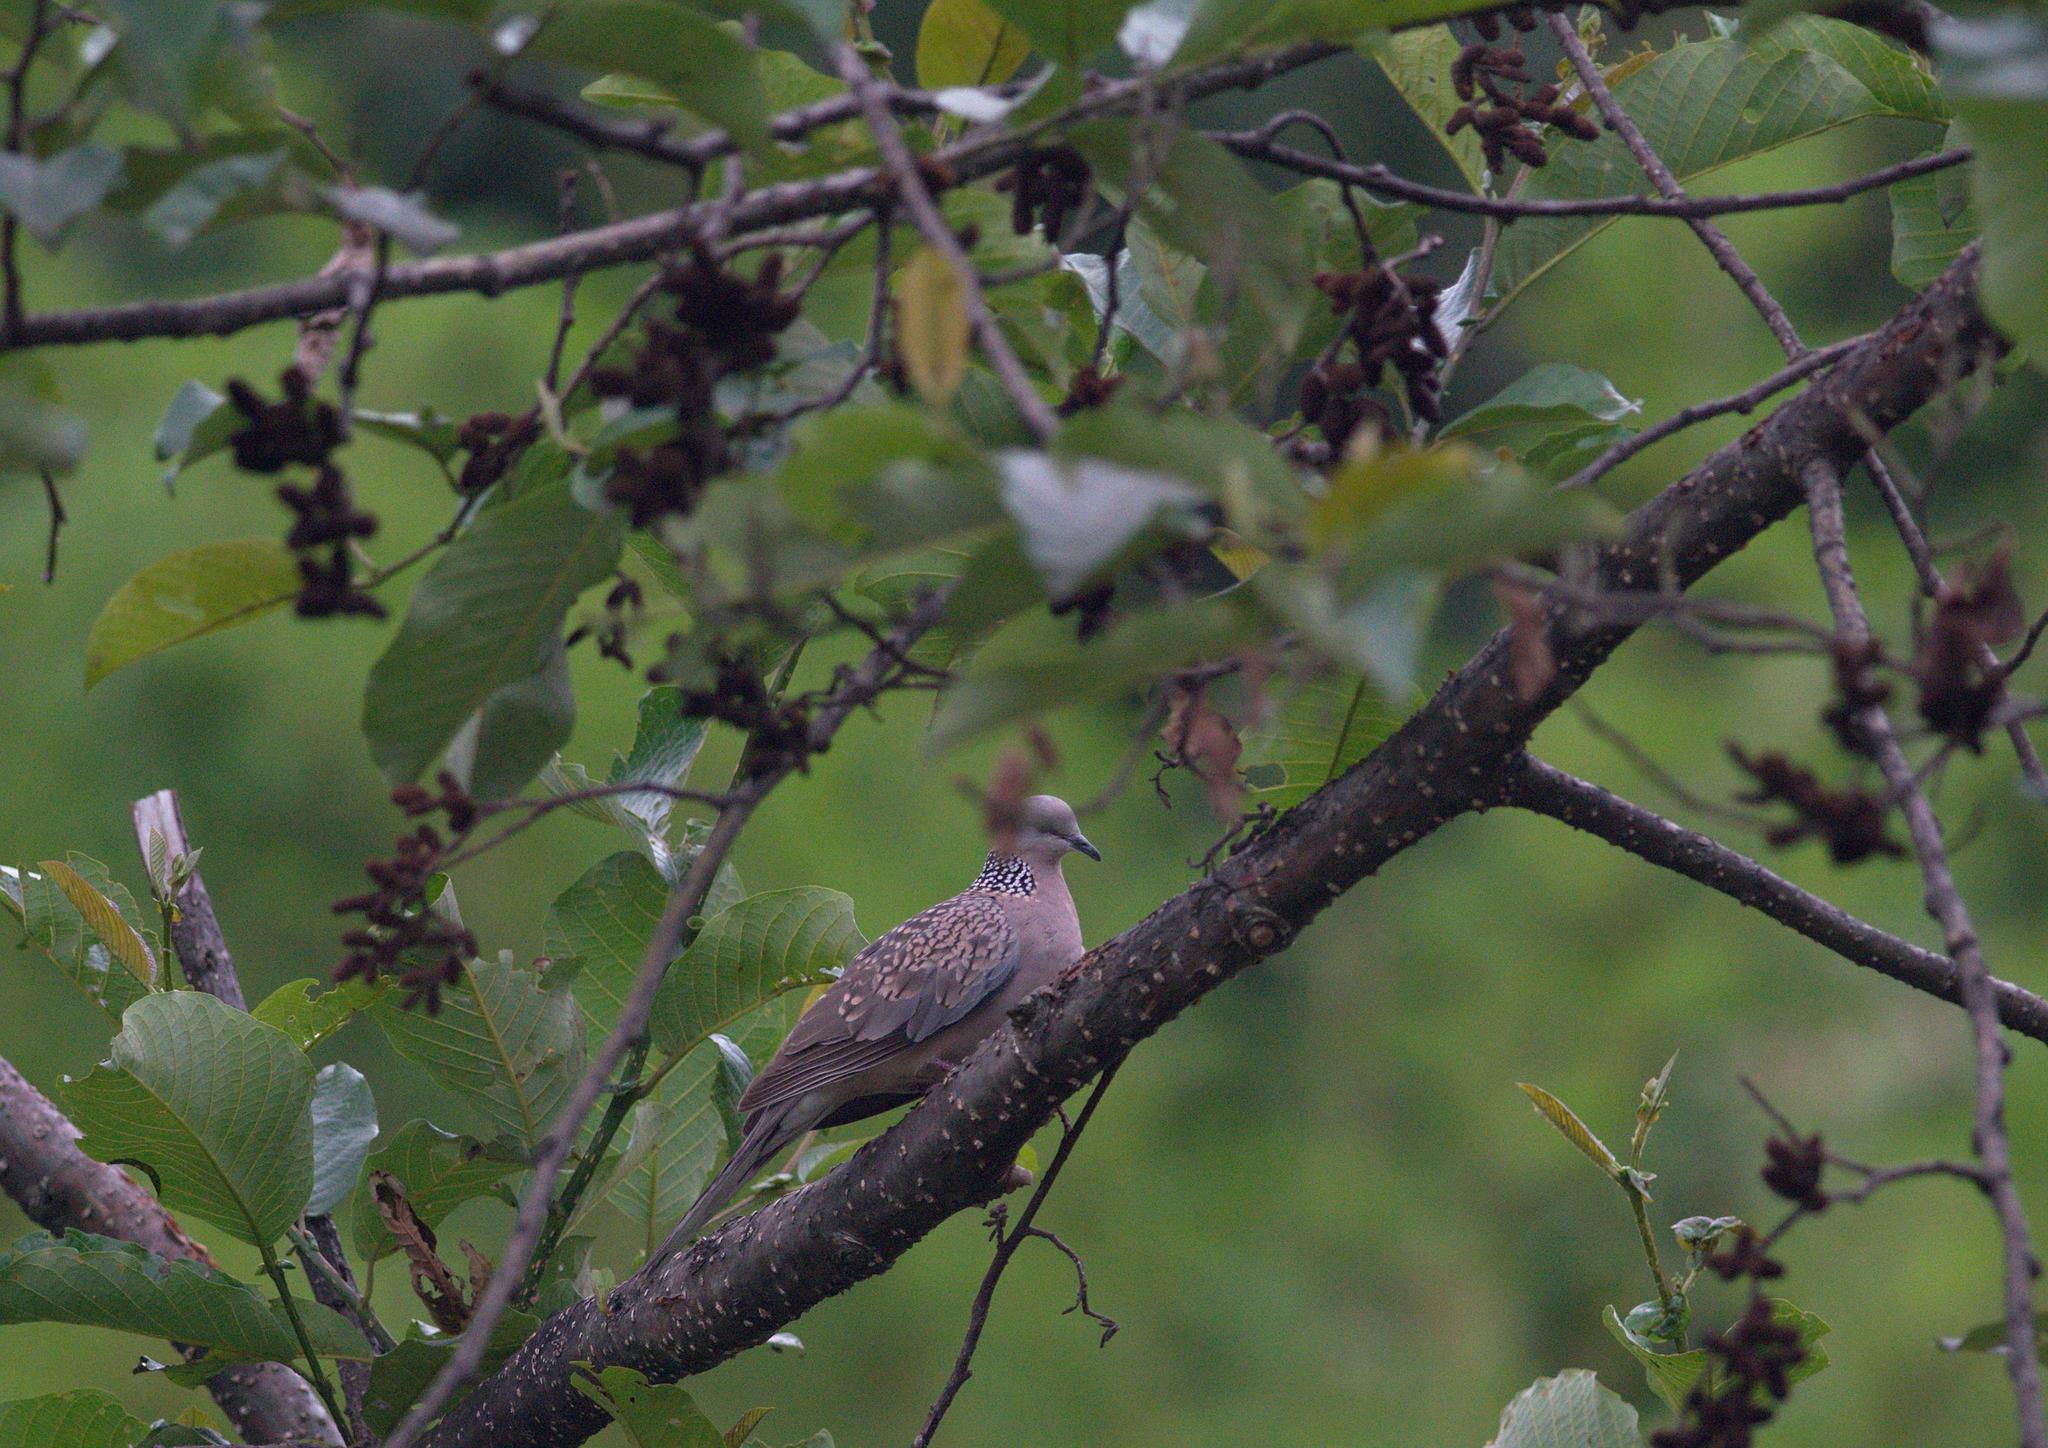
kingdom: Animalia
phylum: Chordata
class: Aves
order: Columbiformes
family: Columbidae
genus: Spilopelia
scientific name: Spilopelia chinensis
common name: Spotted dove
